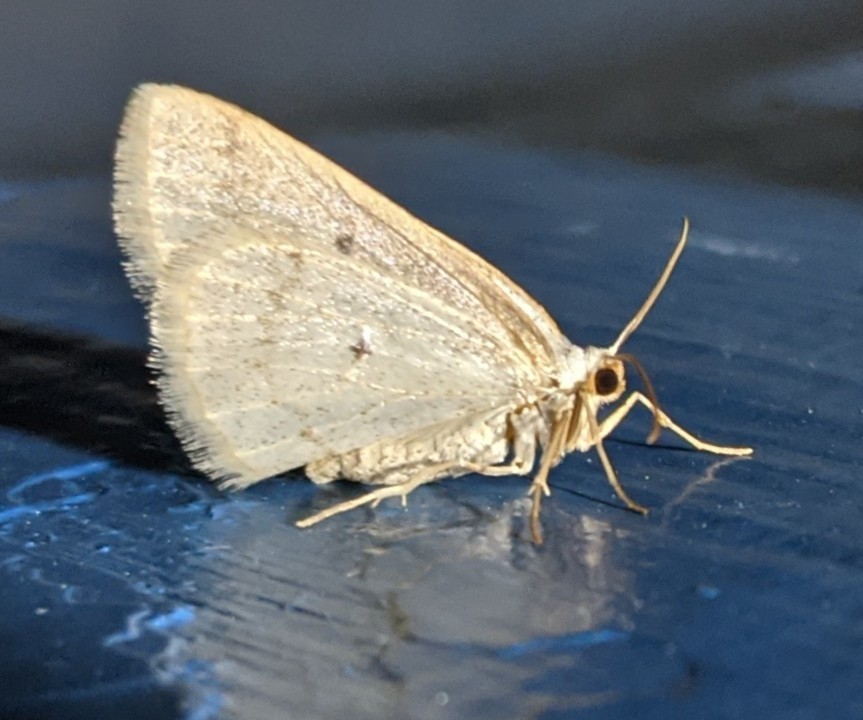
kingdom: Animalia
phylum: Arthropoda
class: Insecta
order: Lepidoptera
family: Geometridae
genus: Lomographa
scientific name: Lomographa glomeraria
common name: Gray spring moth
